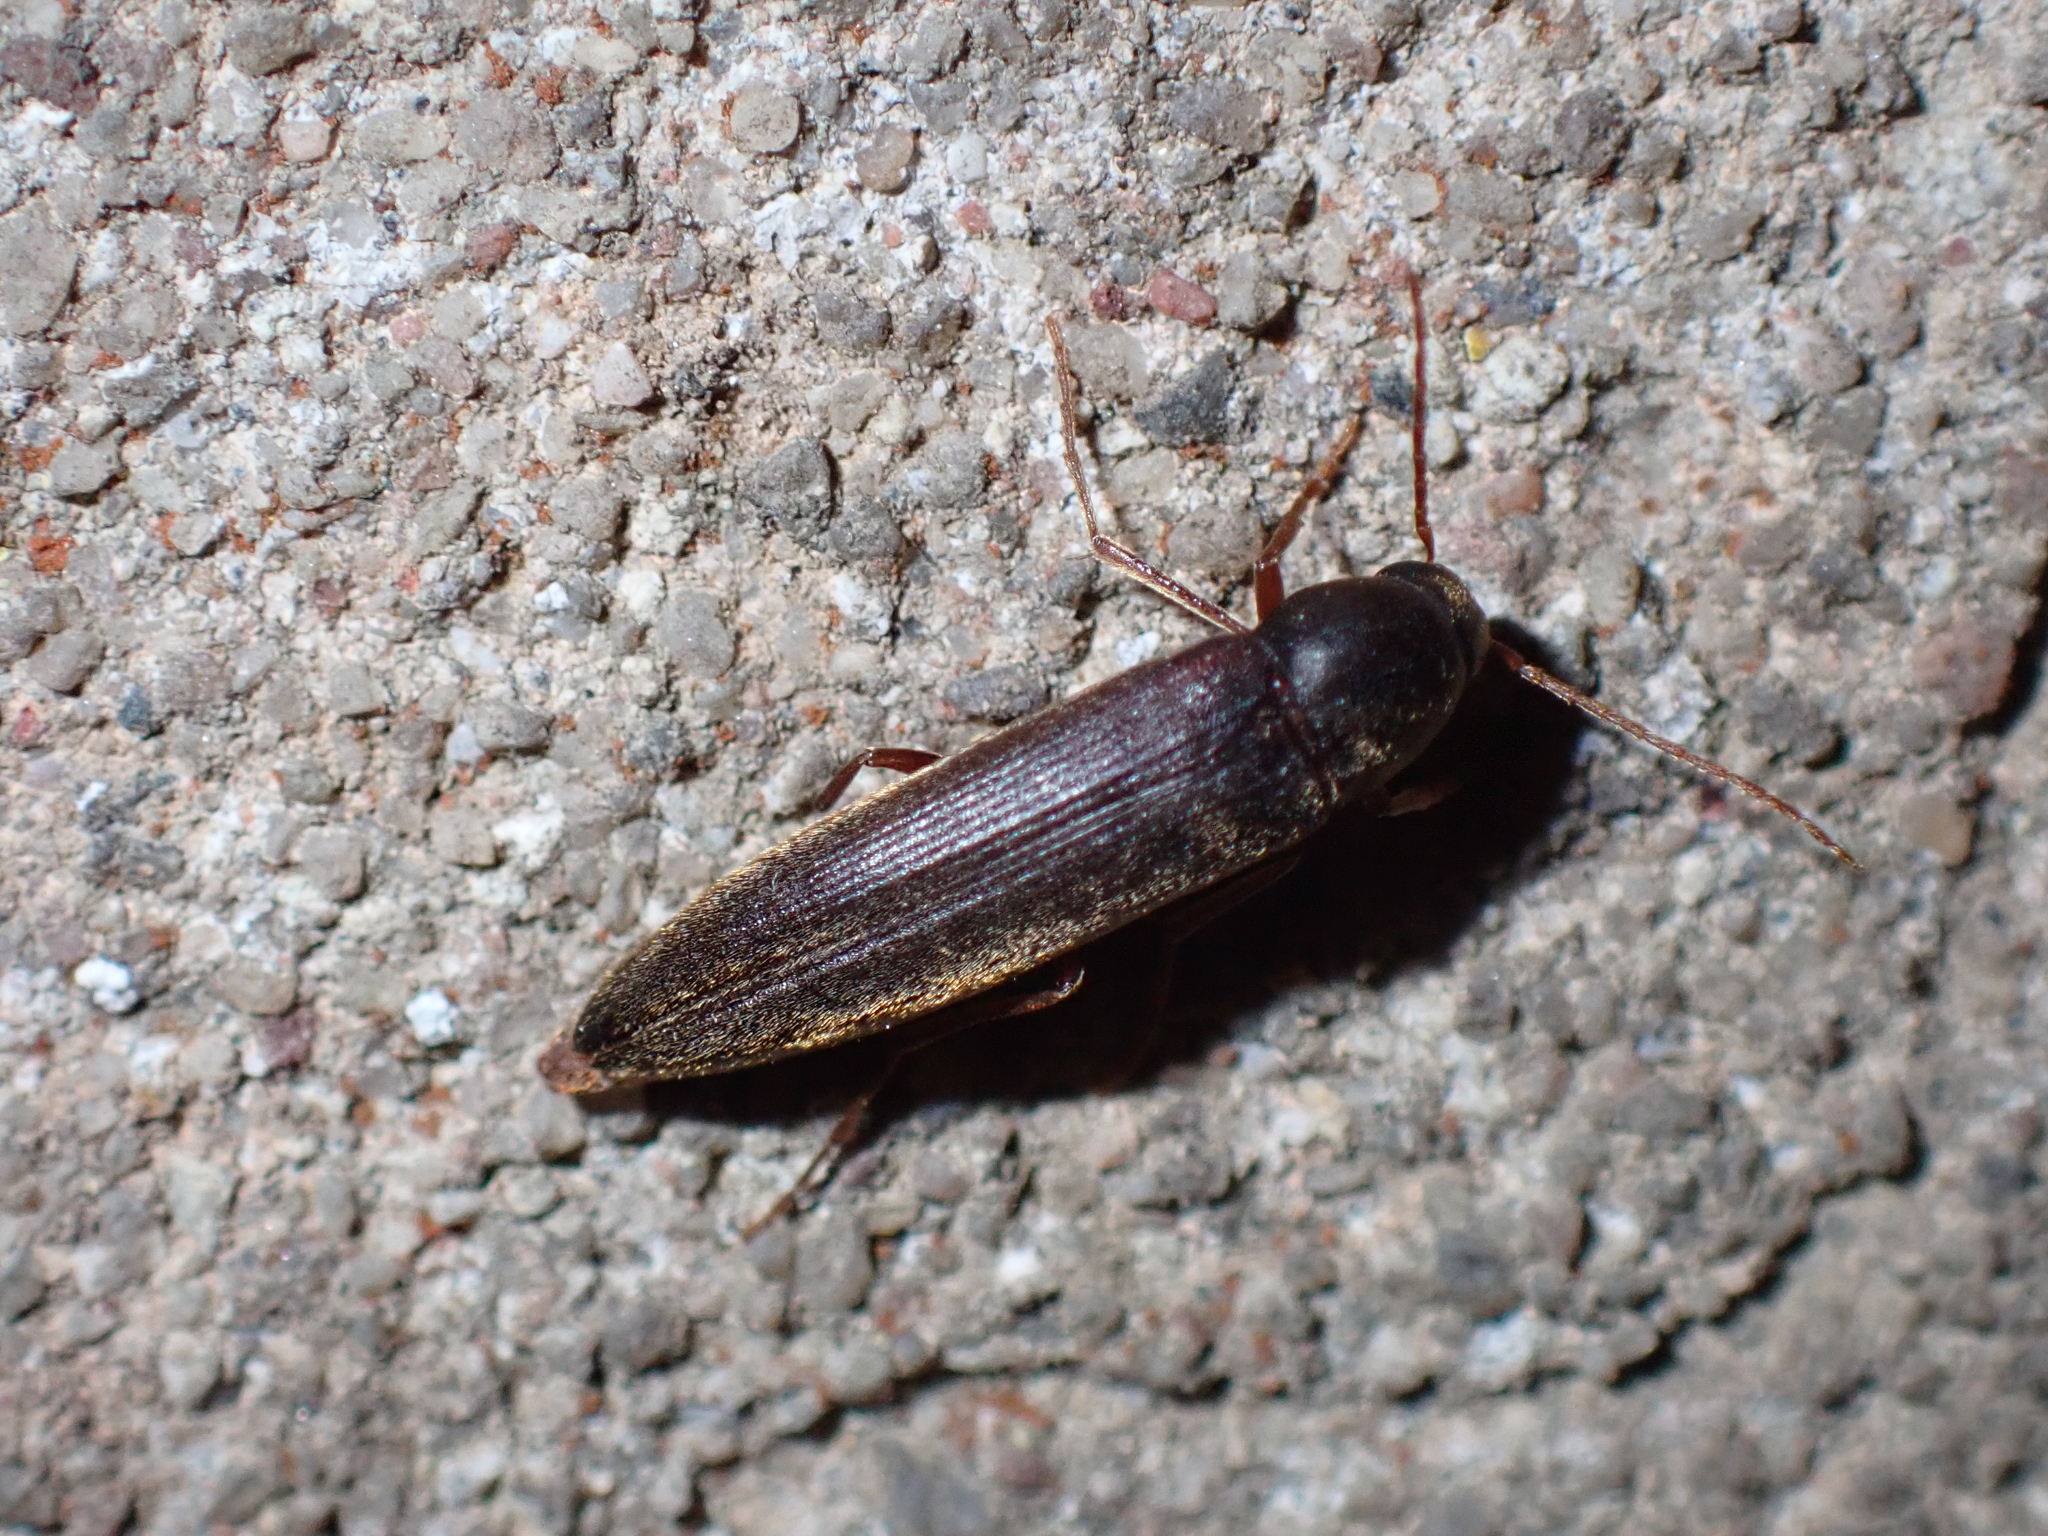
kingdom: Animalia
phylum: Arthropoda
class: Insecta
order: Coleoptera
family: Melandryidae
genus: Serropalpus
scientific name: Serropalpus barbatus
